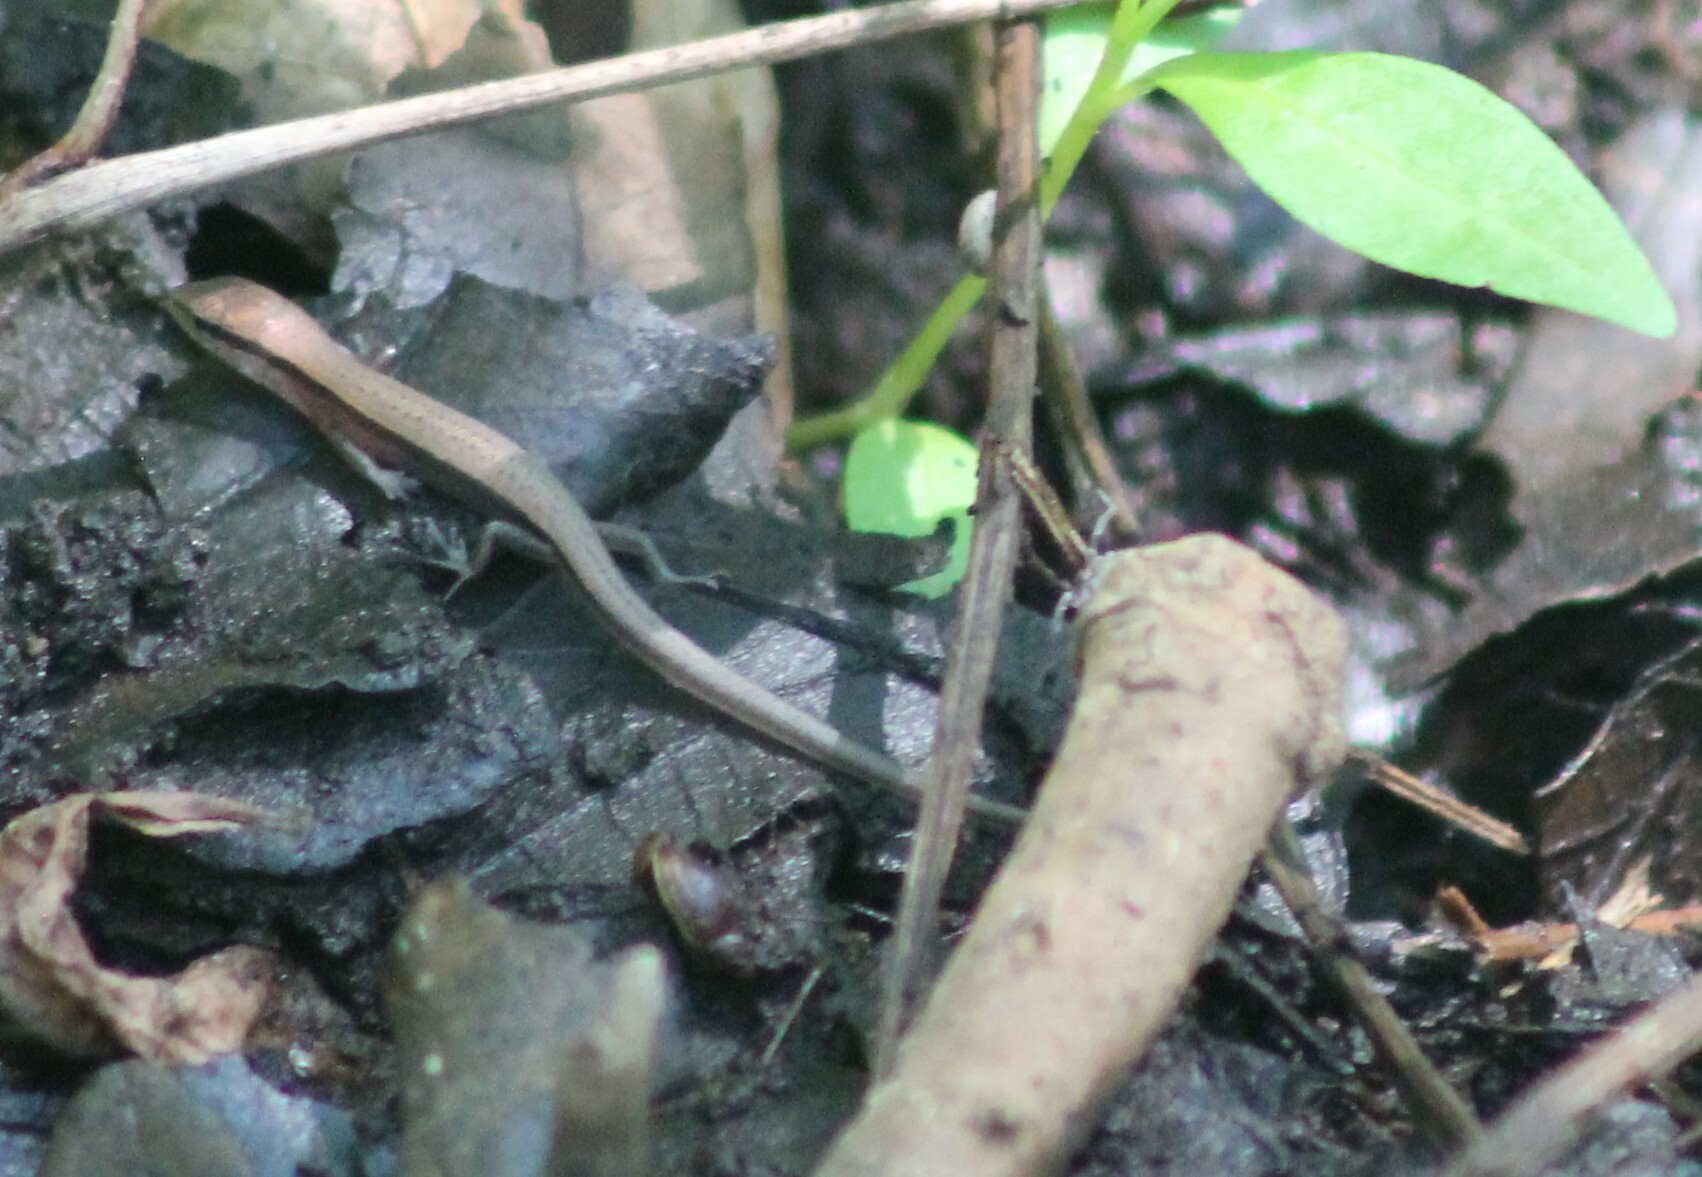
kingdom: Animalia
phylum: Chordata
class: Squamata
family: Scincidae
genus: Scincella
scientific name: Scincella lateralis
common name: Ground skink
